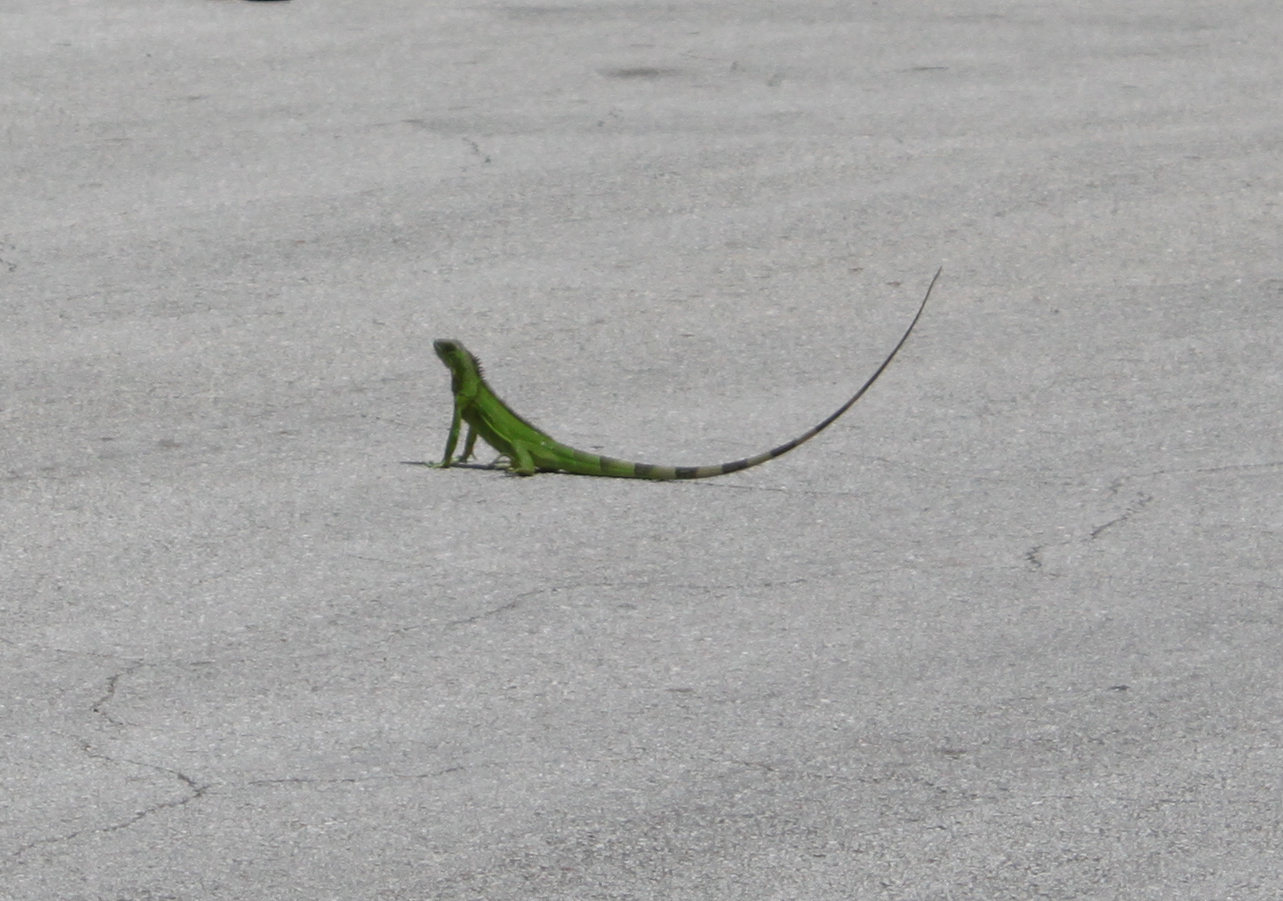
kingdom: Animalia
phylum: Chordata
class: Squamata
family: Iguanidae
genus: Iguana
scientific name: Iguana iguana
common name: Green iguana
